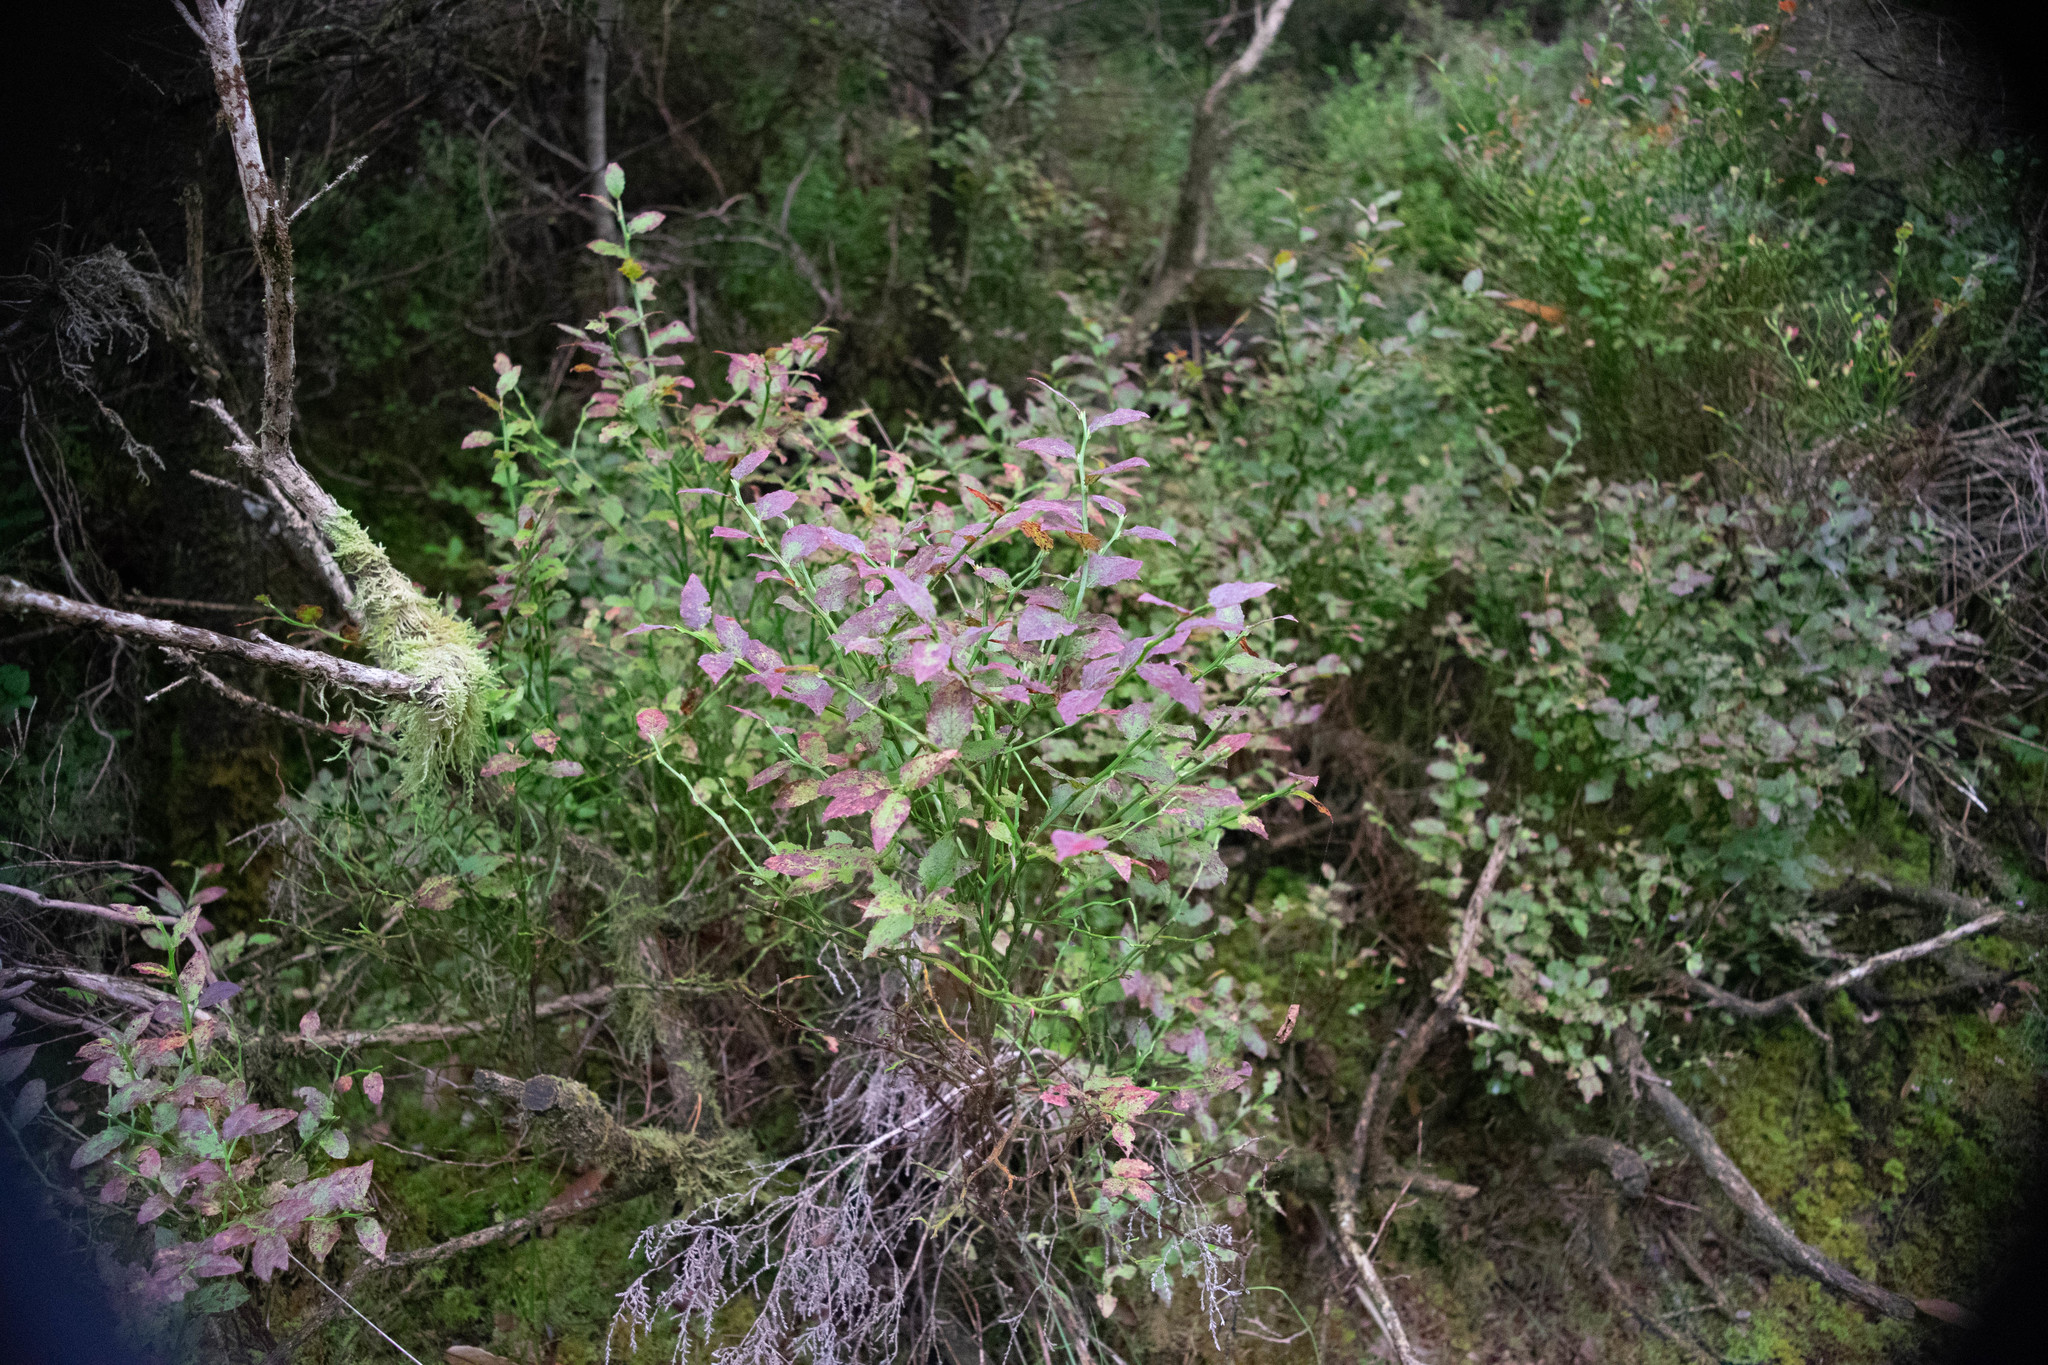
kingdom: Plantae
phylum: Tracheophyta
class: Magnoliopsida
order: Ericales
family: Ericaceae
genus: Vaccinium
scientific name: Vaccinium myrtillus
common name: Bilberry
